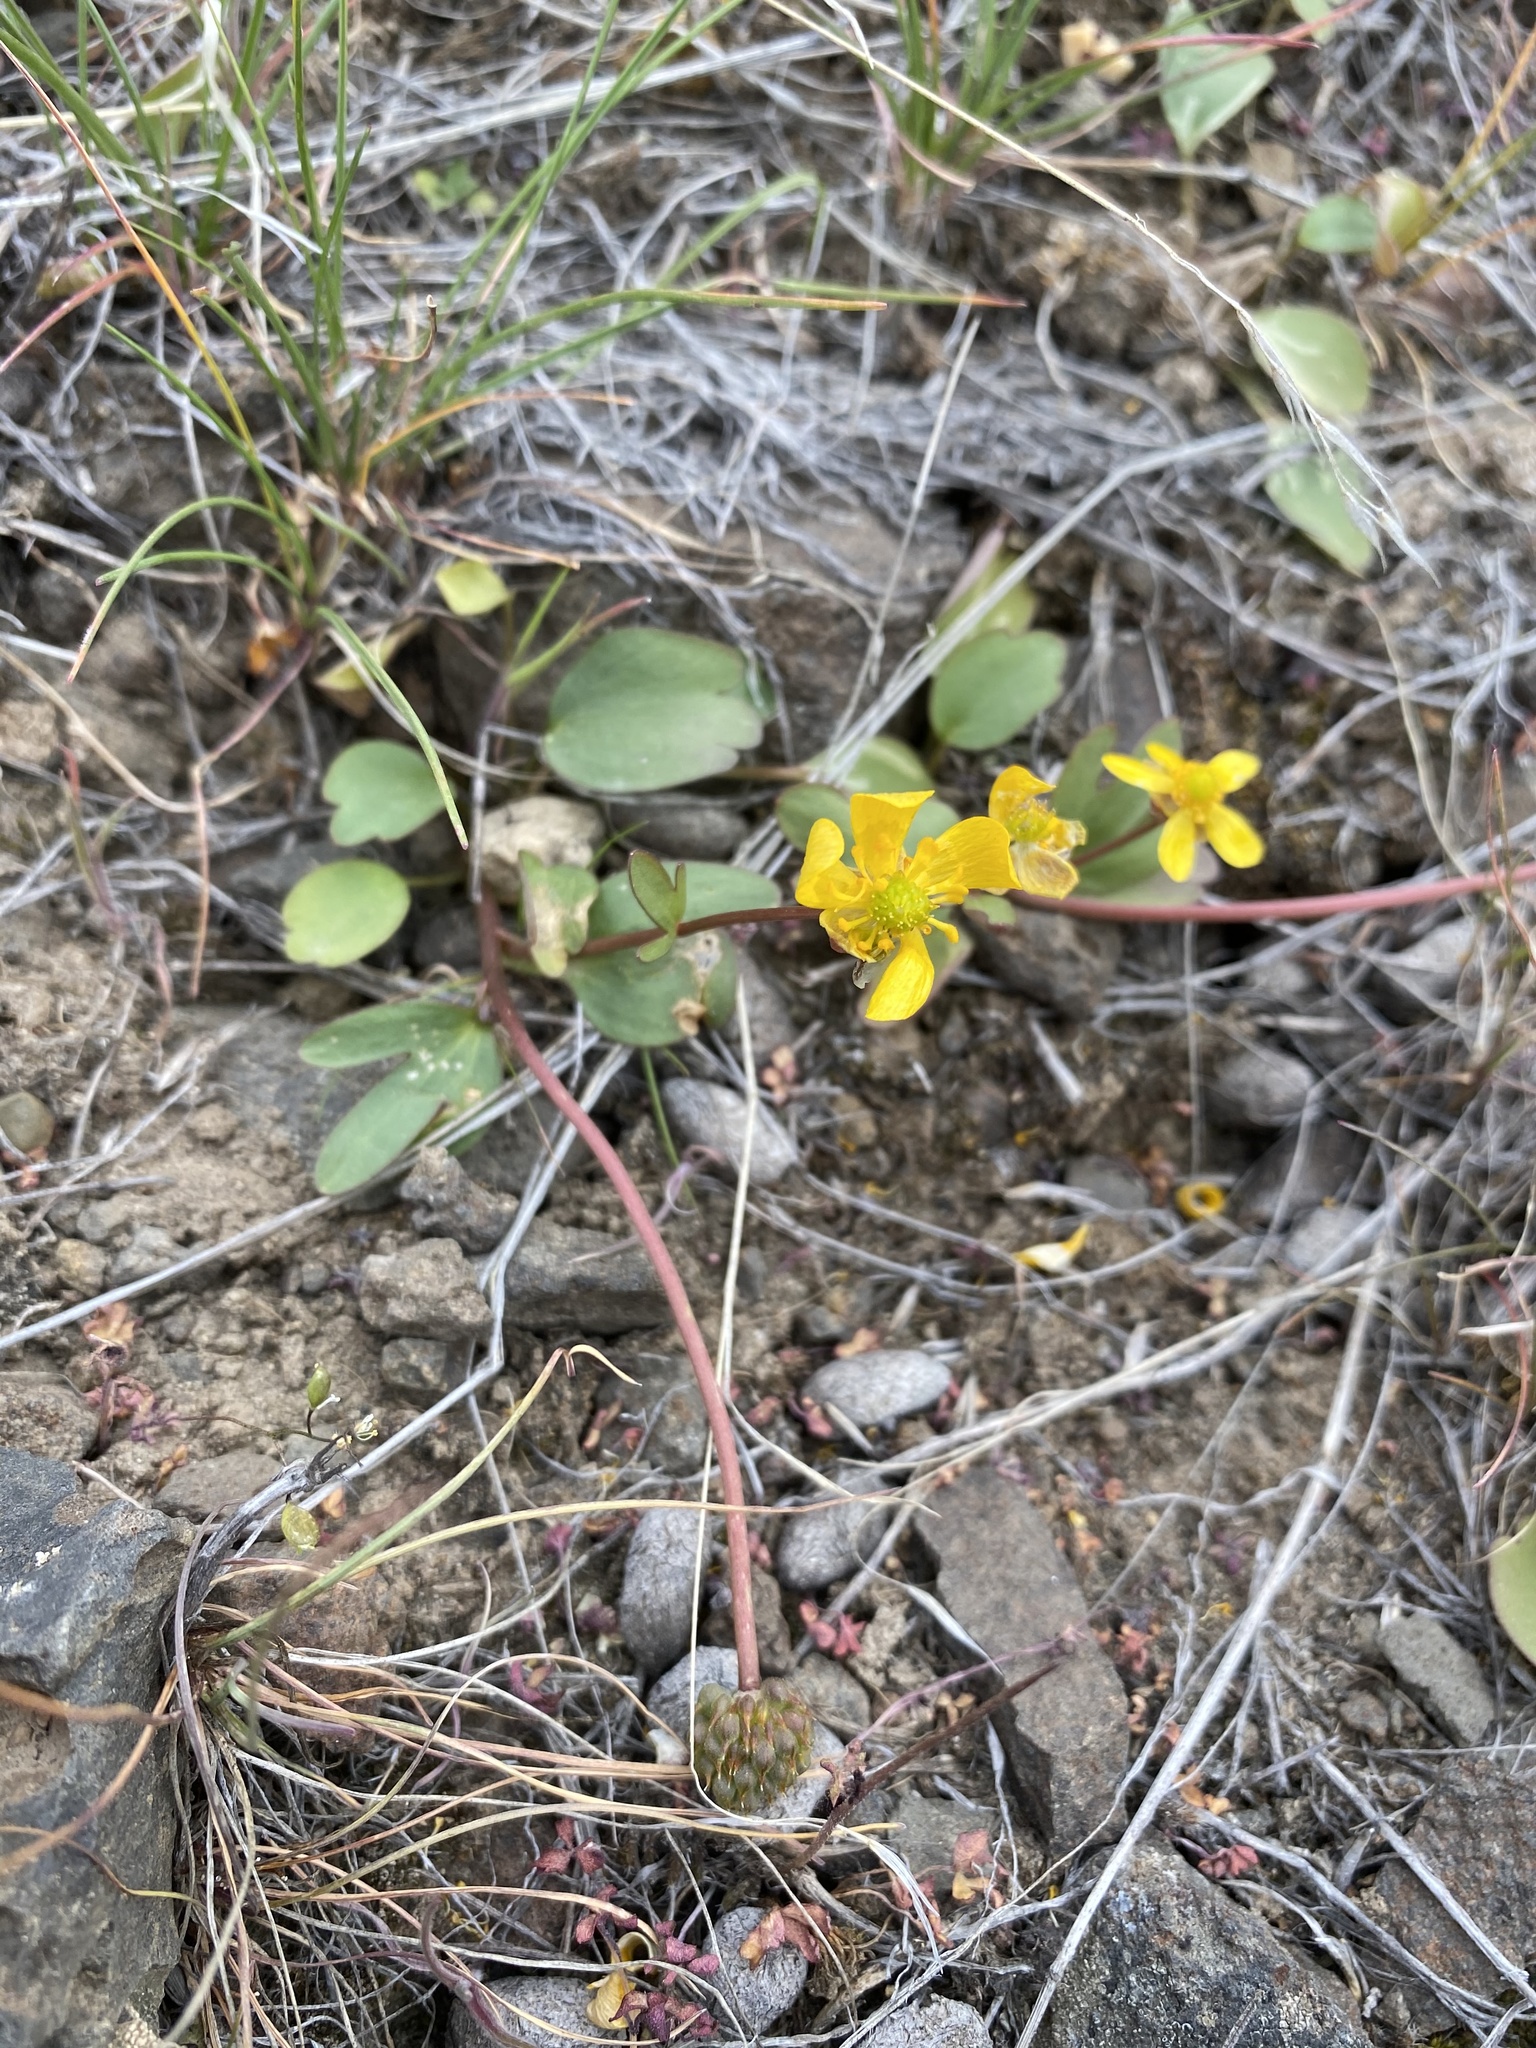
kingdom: Plantae
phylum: Tracheophyta
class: Magnoliopsida
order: Ranunculales
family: Ranunculaceae
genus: Ranunculus
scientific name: Ranunculus glaberrimus
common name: Sagebrush buttercup
